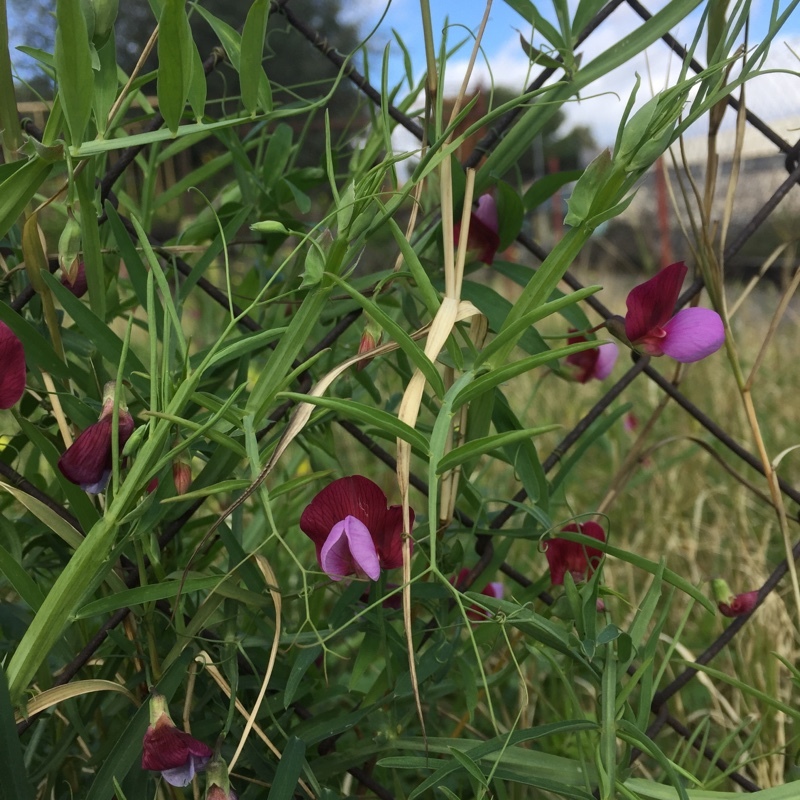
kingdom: Plantae
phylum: Tracheophyta
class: Magnoliopsida
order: Fabales
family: Fabaceae
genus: Lathyrus
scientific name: Lathyrus clymenum
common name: Spanish vetchling
